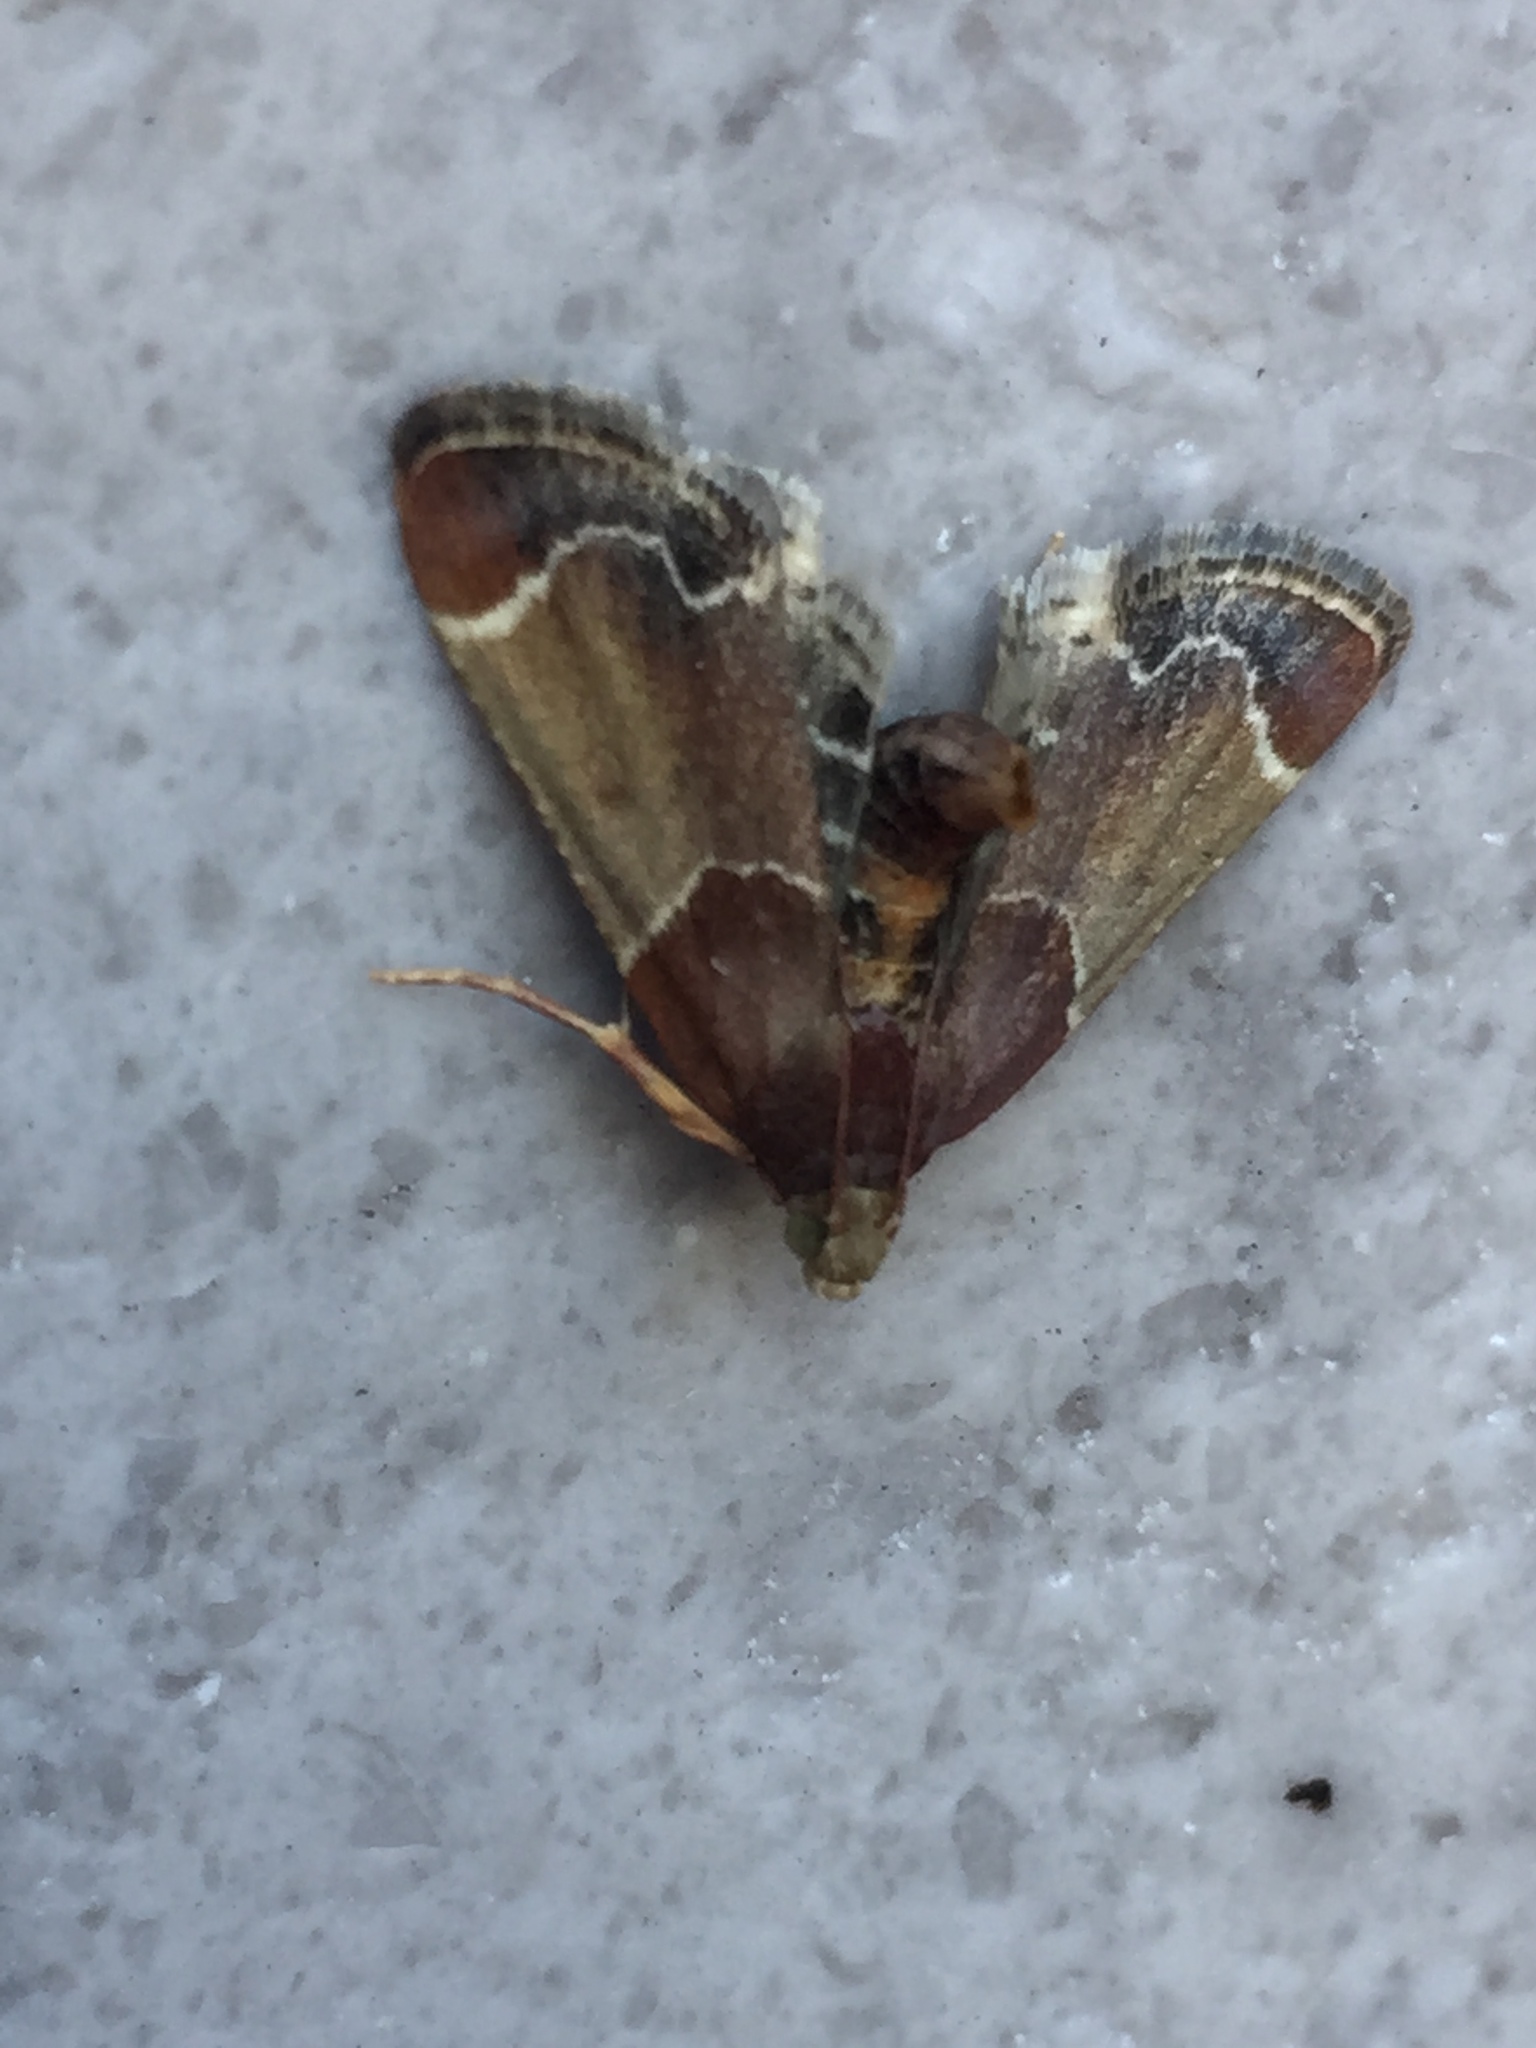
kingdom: Animalia
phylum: Arthropoda
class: Insecta
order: Lepidoptera
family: Pyralidae
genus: Pyralis
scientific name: Pyralis farinalis
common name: Meal moth
